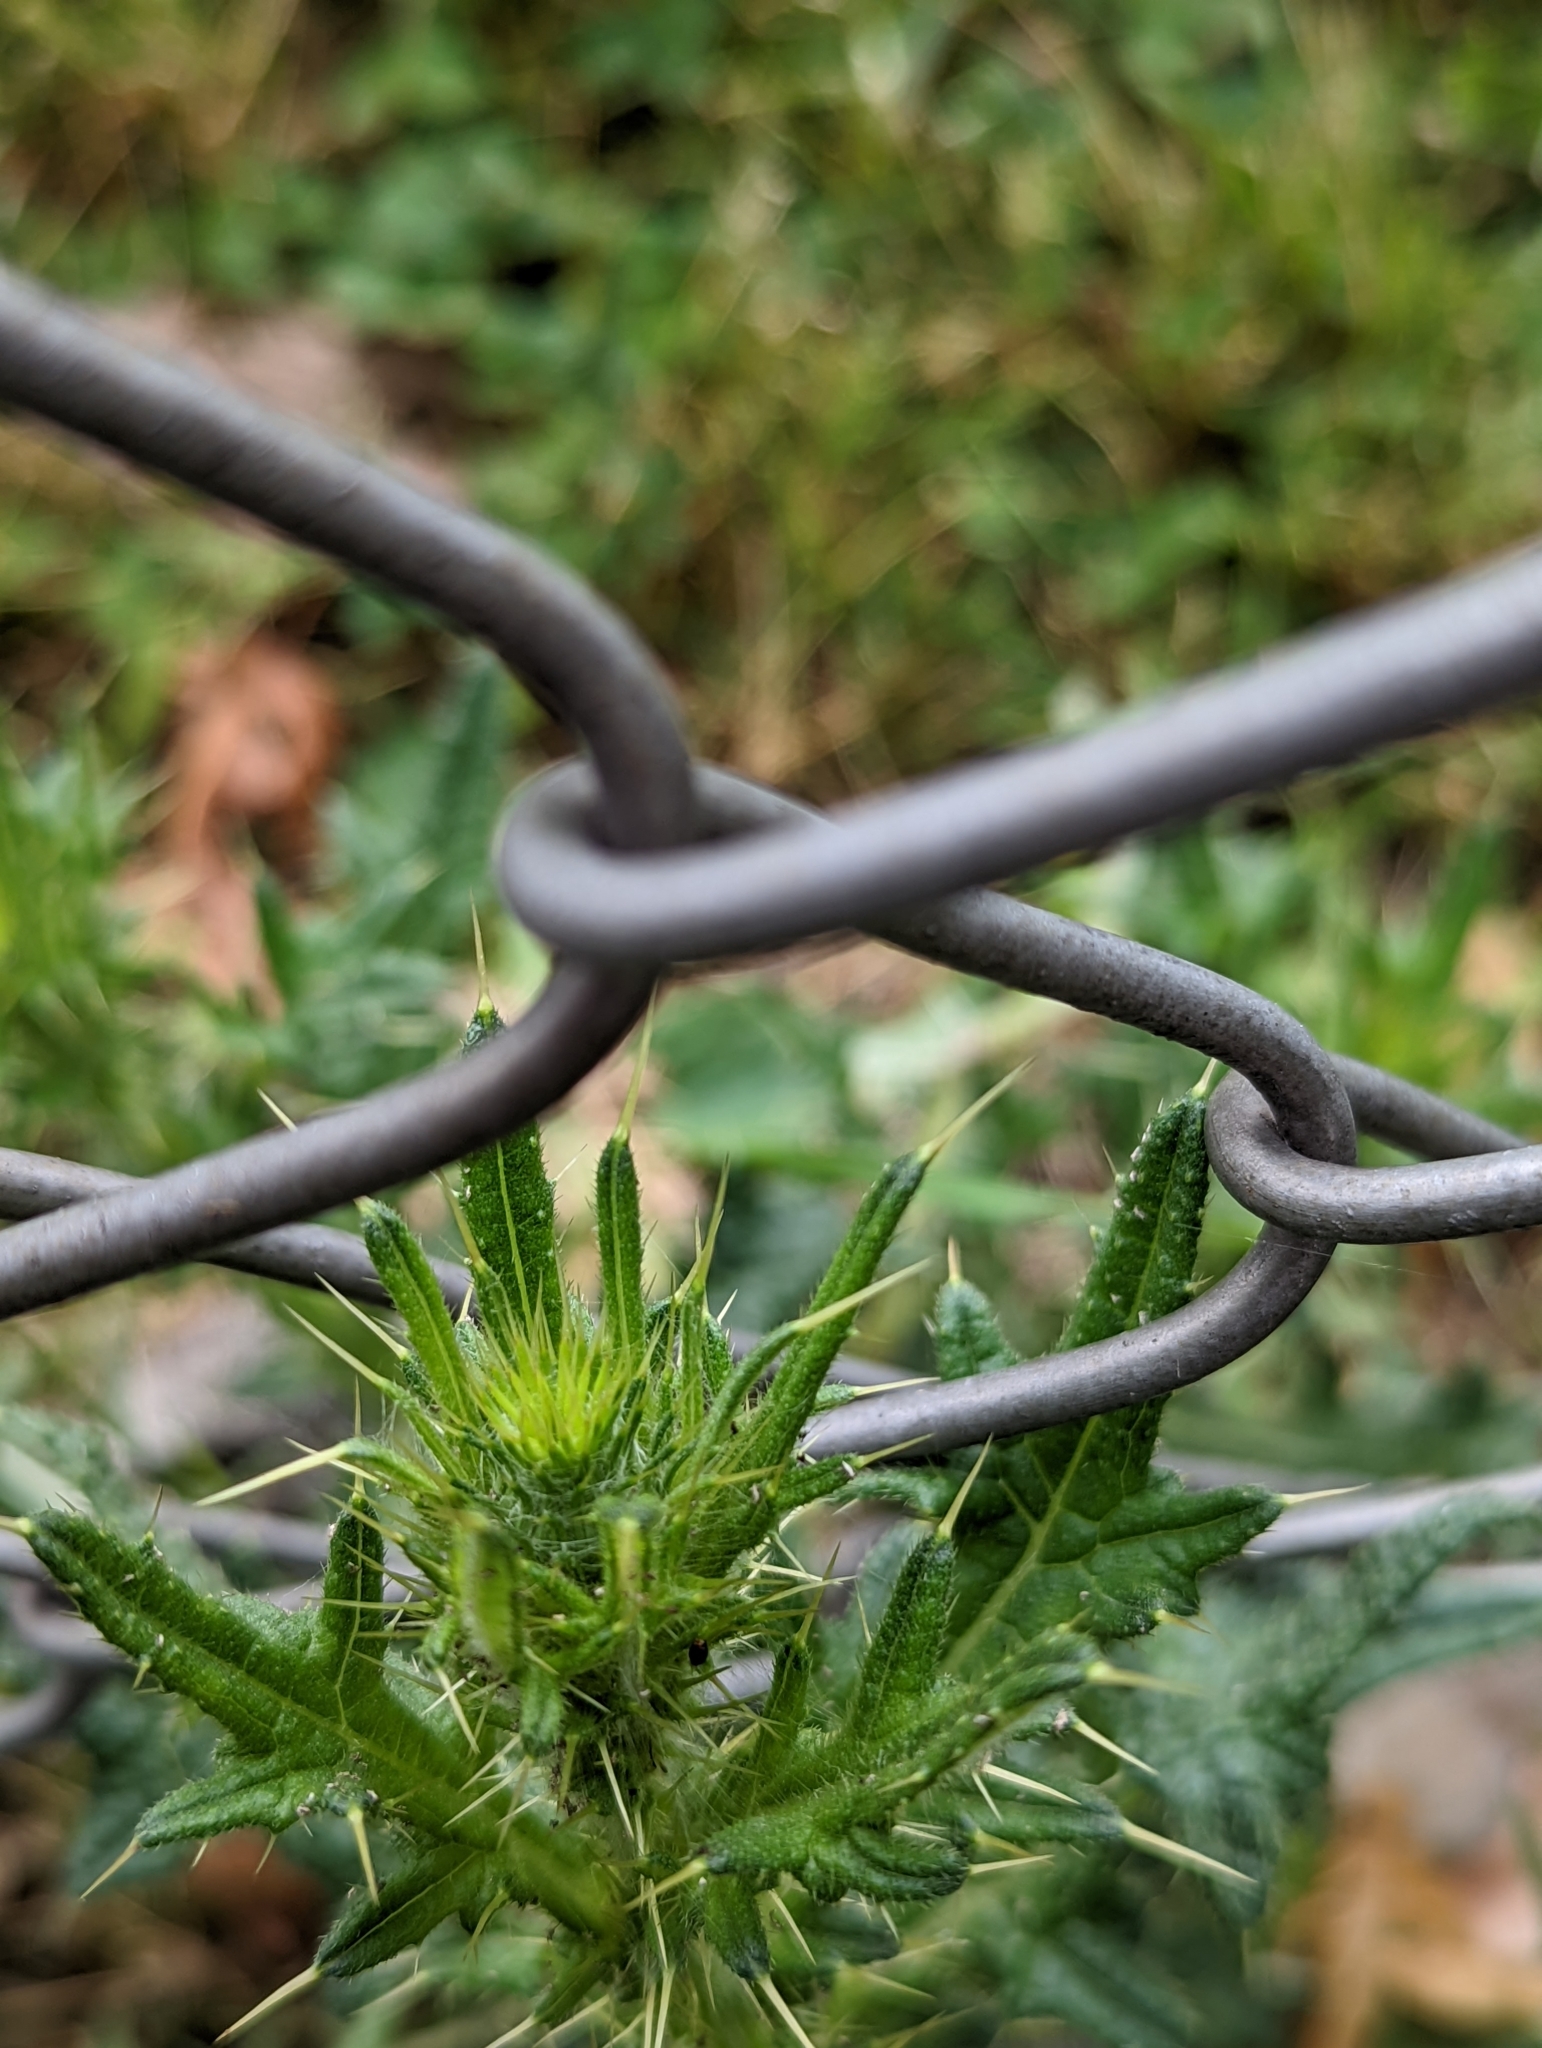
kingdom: Plantae
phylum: Tracheophyta
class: Magnoliopsida
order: Asterales
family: Asteraceae
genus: Cirsium
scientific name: Cirsium vulgare
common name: Bull thistle
